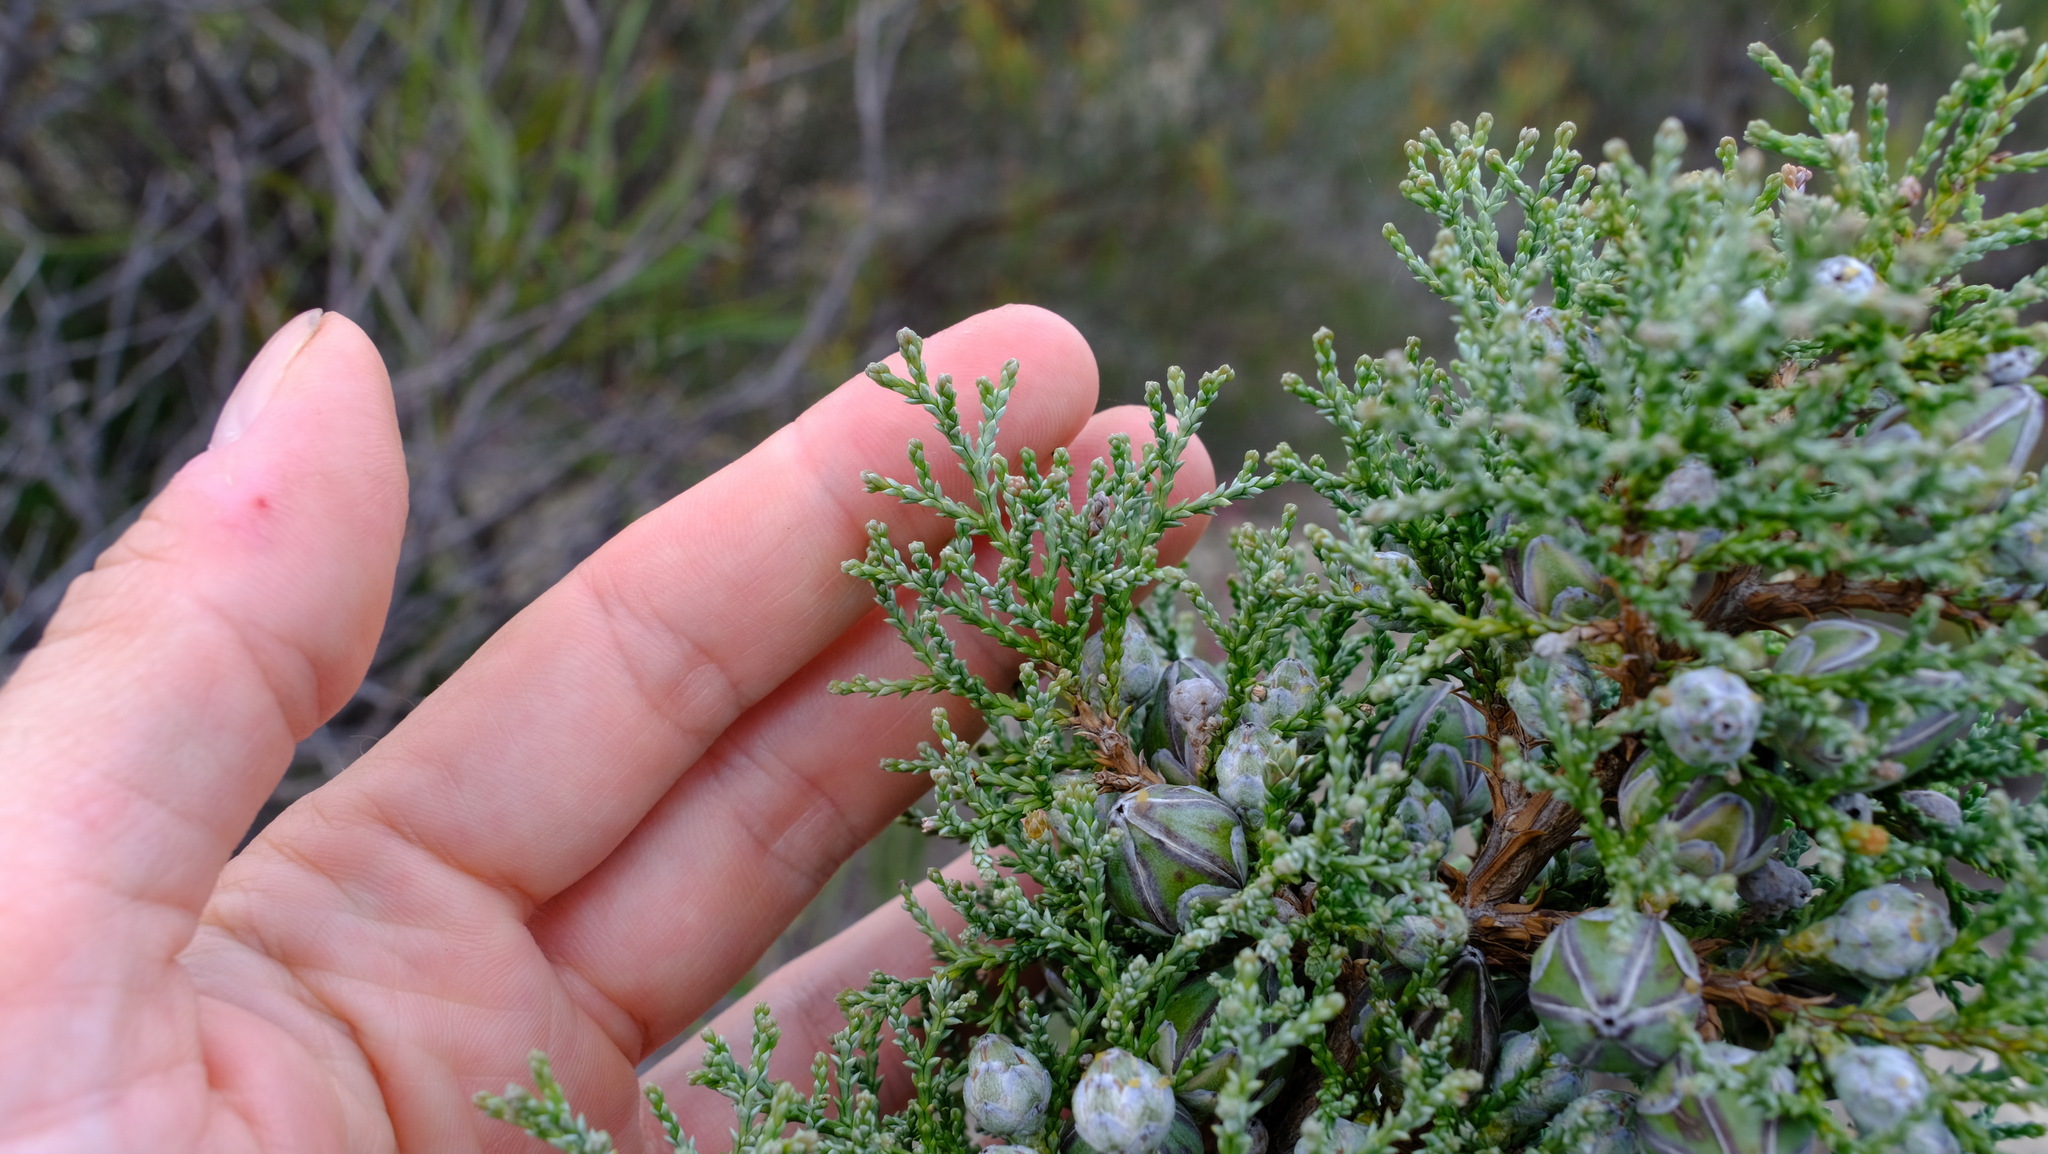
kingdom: Plantae
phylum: Tracheophyta
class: Pinopsida
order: Pinales
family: Cupressaceae
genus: Actinostrobus
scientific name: Actinostrobus arenarius
